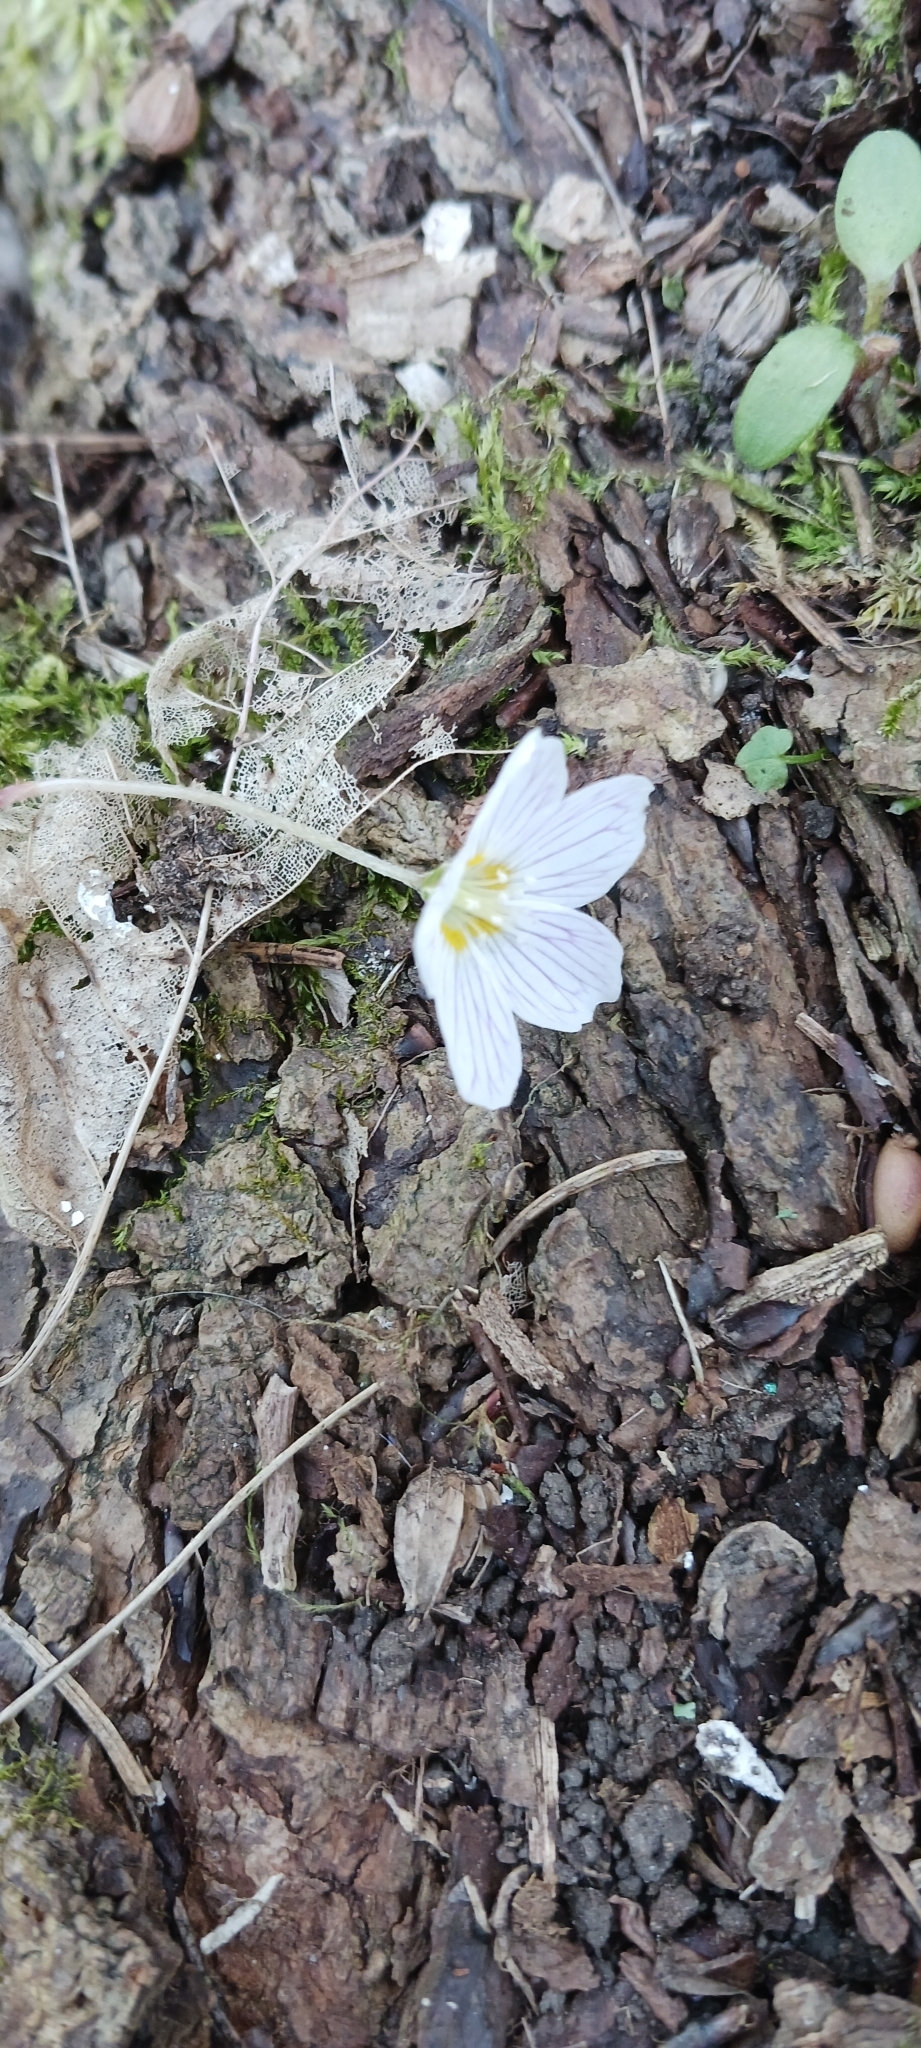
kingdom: Plantae
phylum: Tracheophyta
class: Magnoliopsida
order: Oxalidales
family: Oxalidaceae
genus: Oxalis
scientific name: Oxalis acetosella
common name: Wood-sorrel
